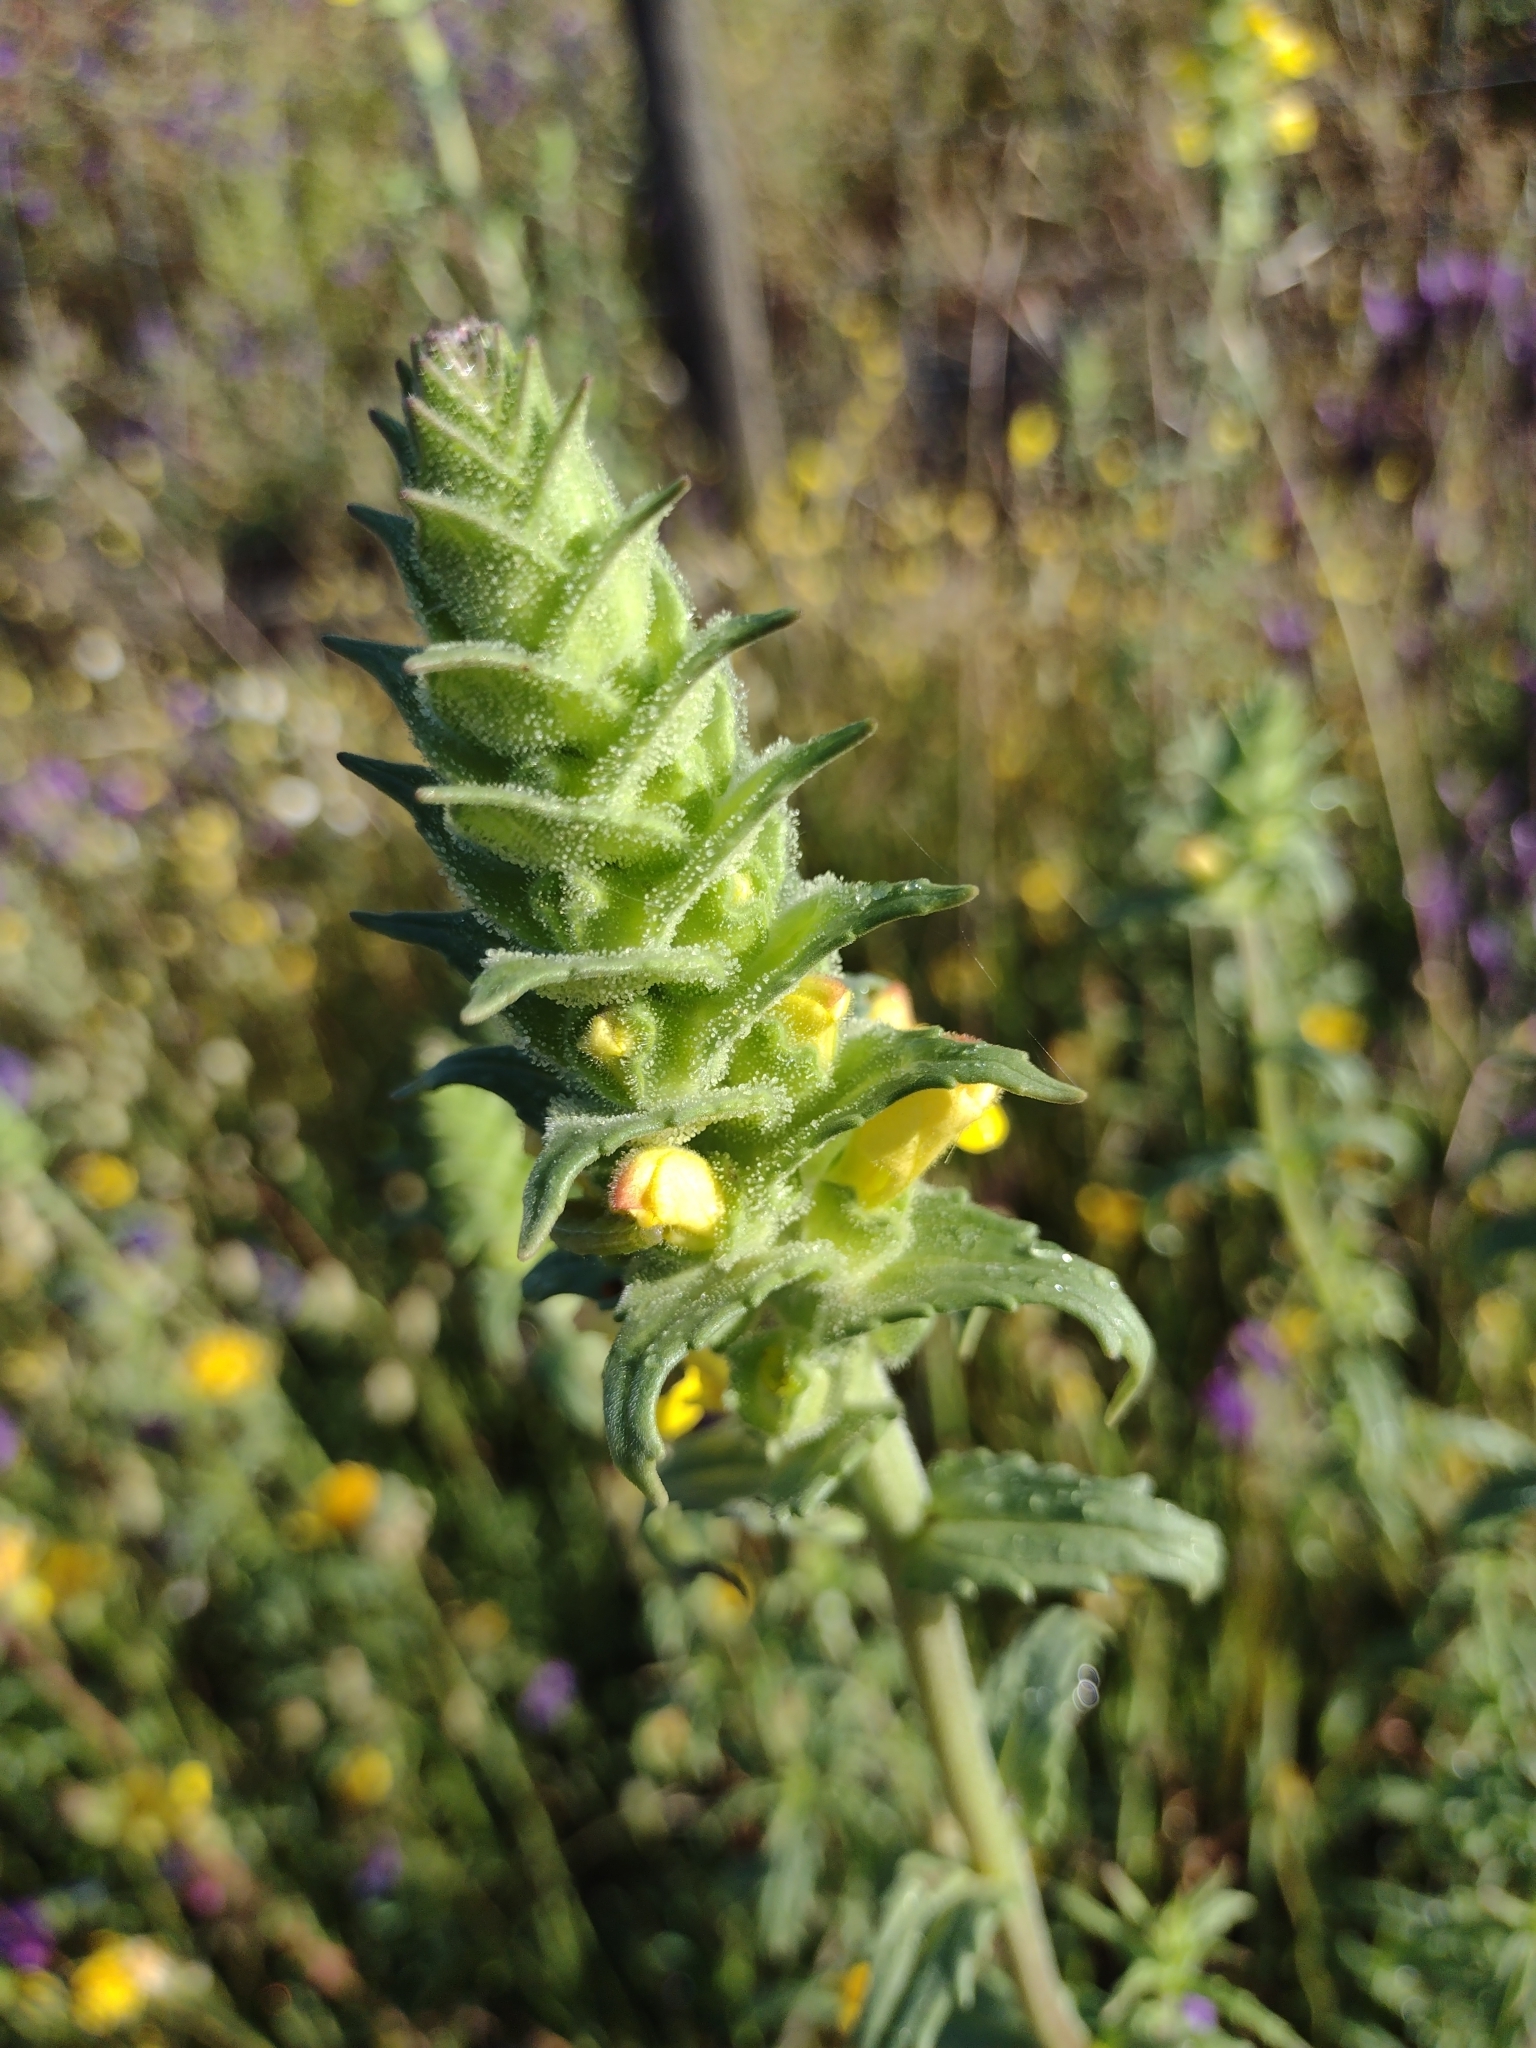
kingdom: Plantae
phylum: Tracheophyta
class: Magnoliopsida
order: Lamiales
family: Orobanchaceae
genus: Bellardia
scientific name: Bellardia trixago
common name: Mediterranean lineseed
